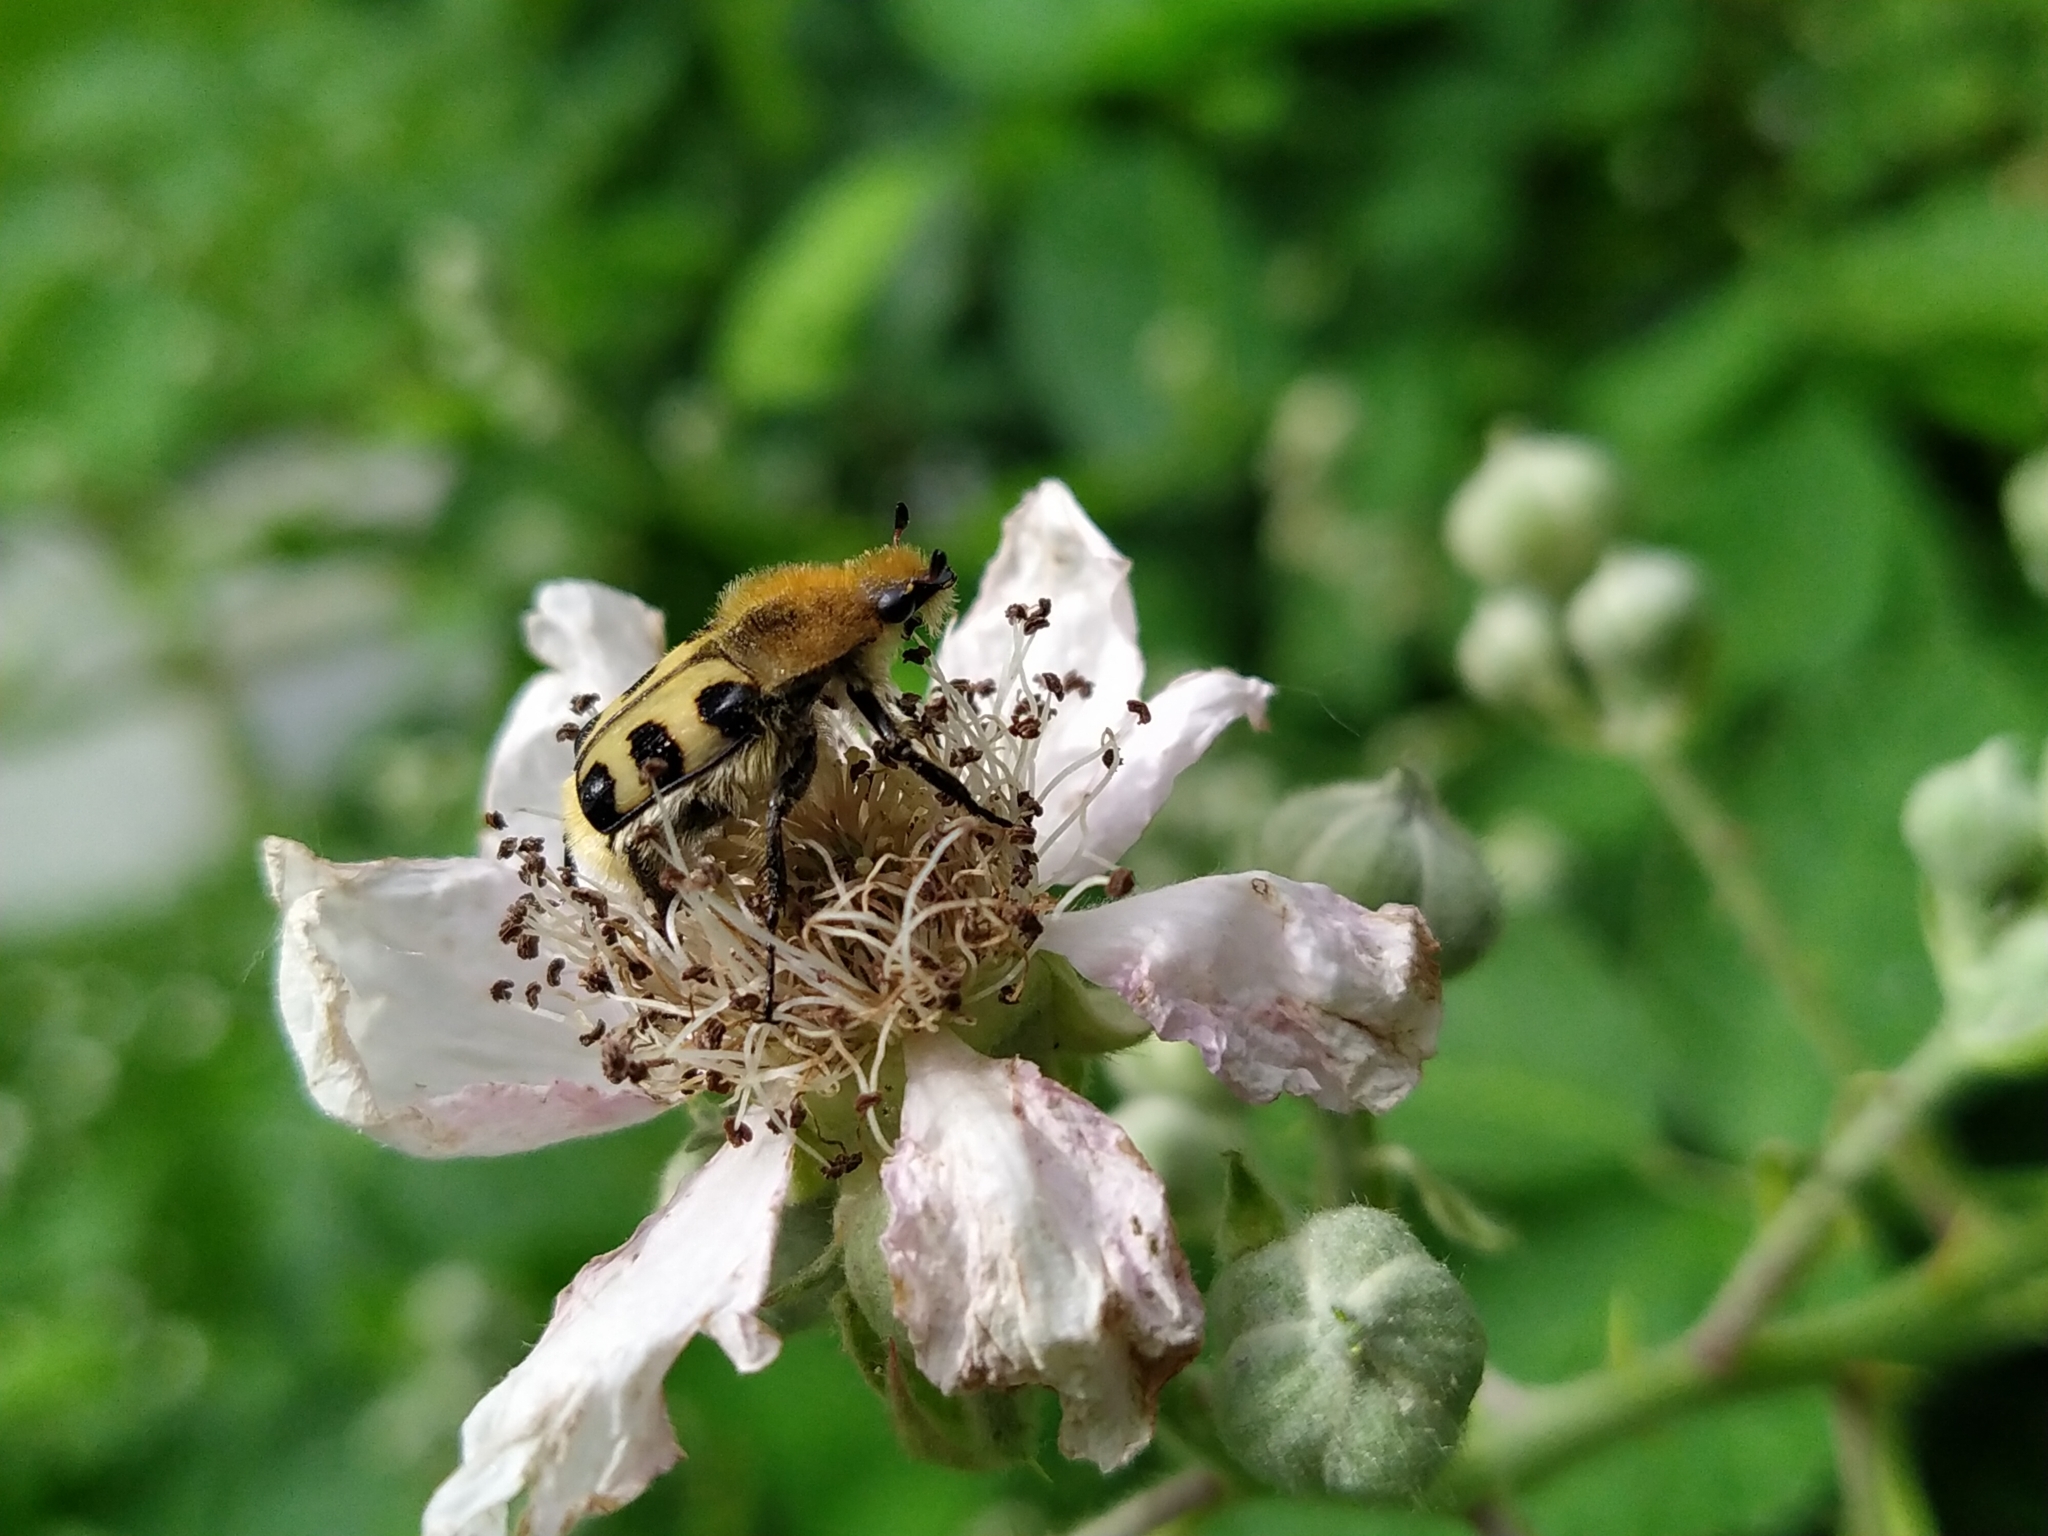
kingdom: Animalia
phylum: Arthropoda
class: Insecta
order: Coleoptera
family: Scarabaeidae
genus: Trichius
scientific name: Trichius gallicus
